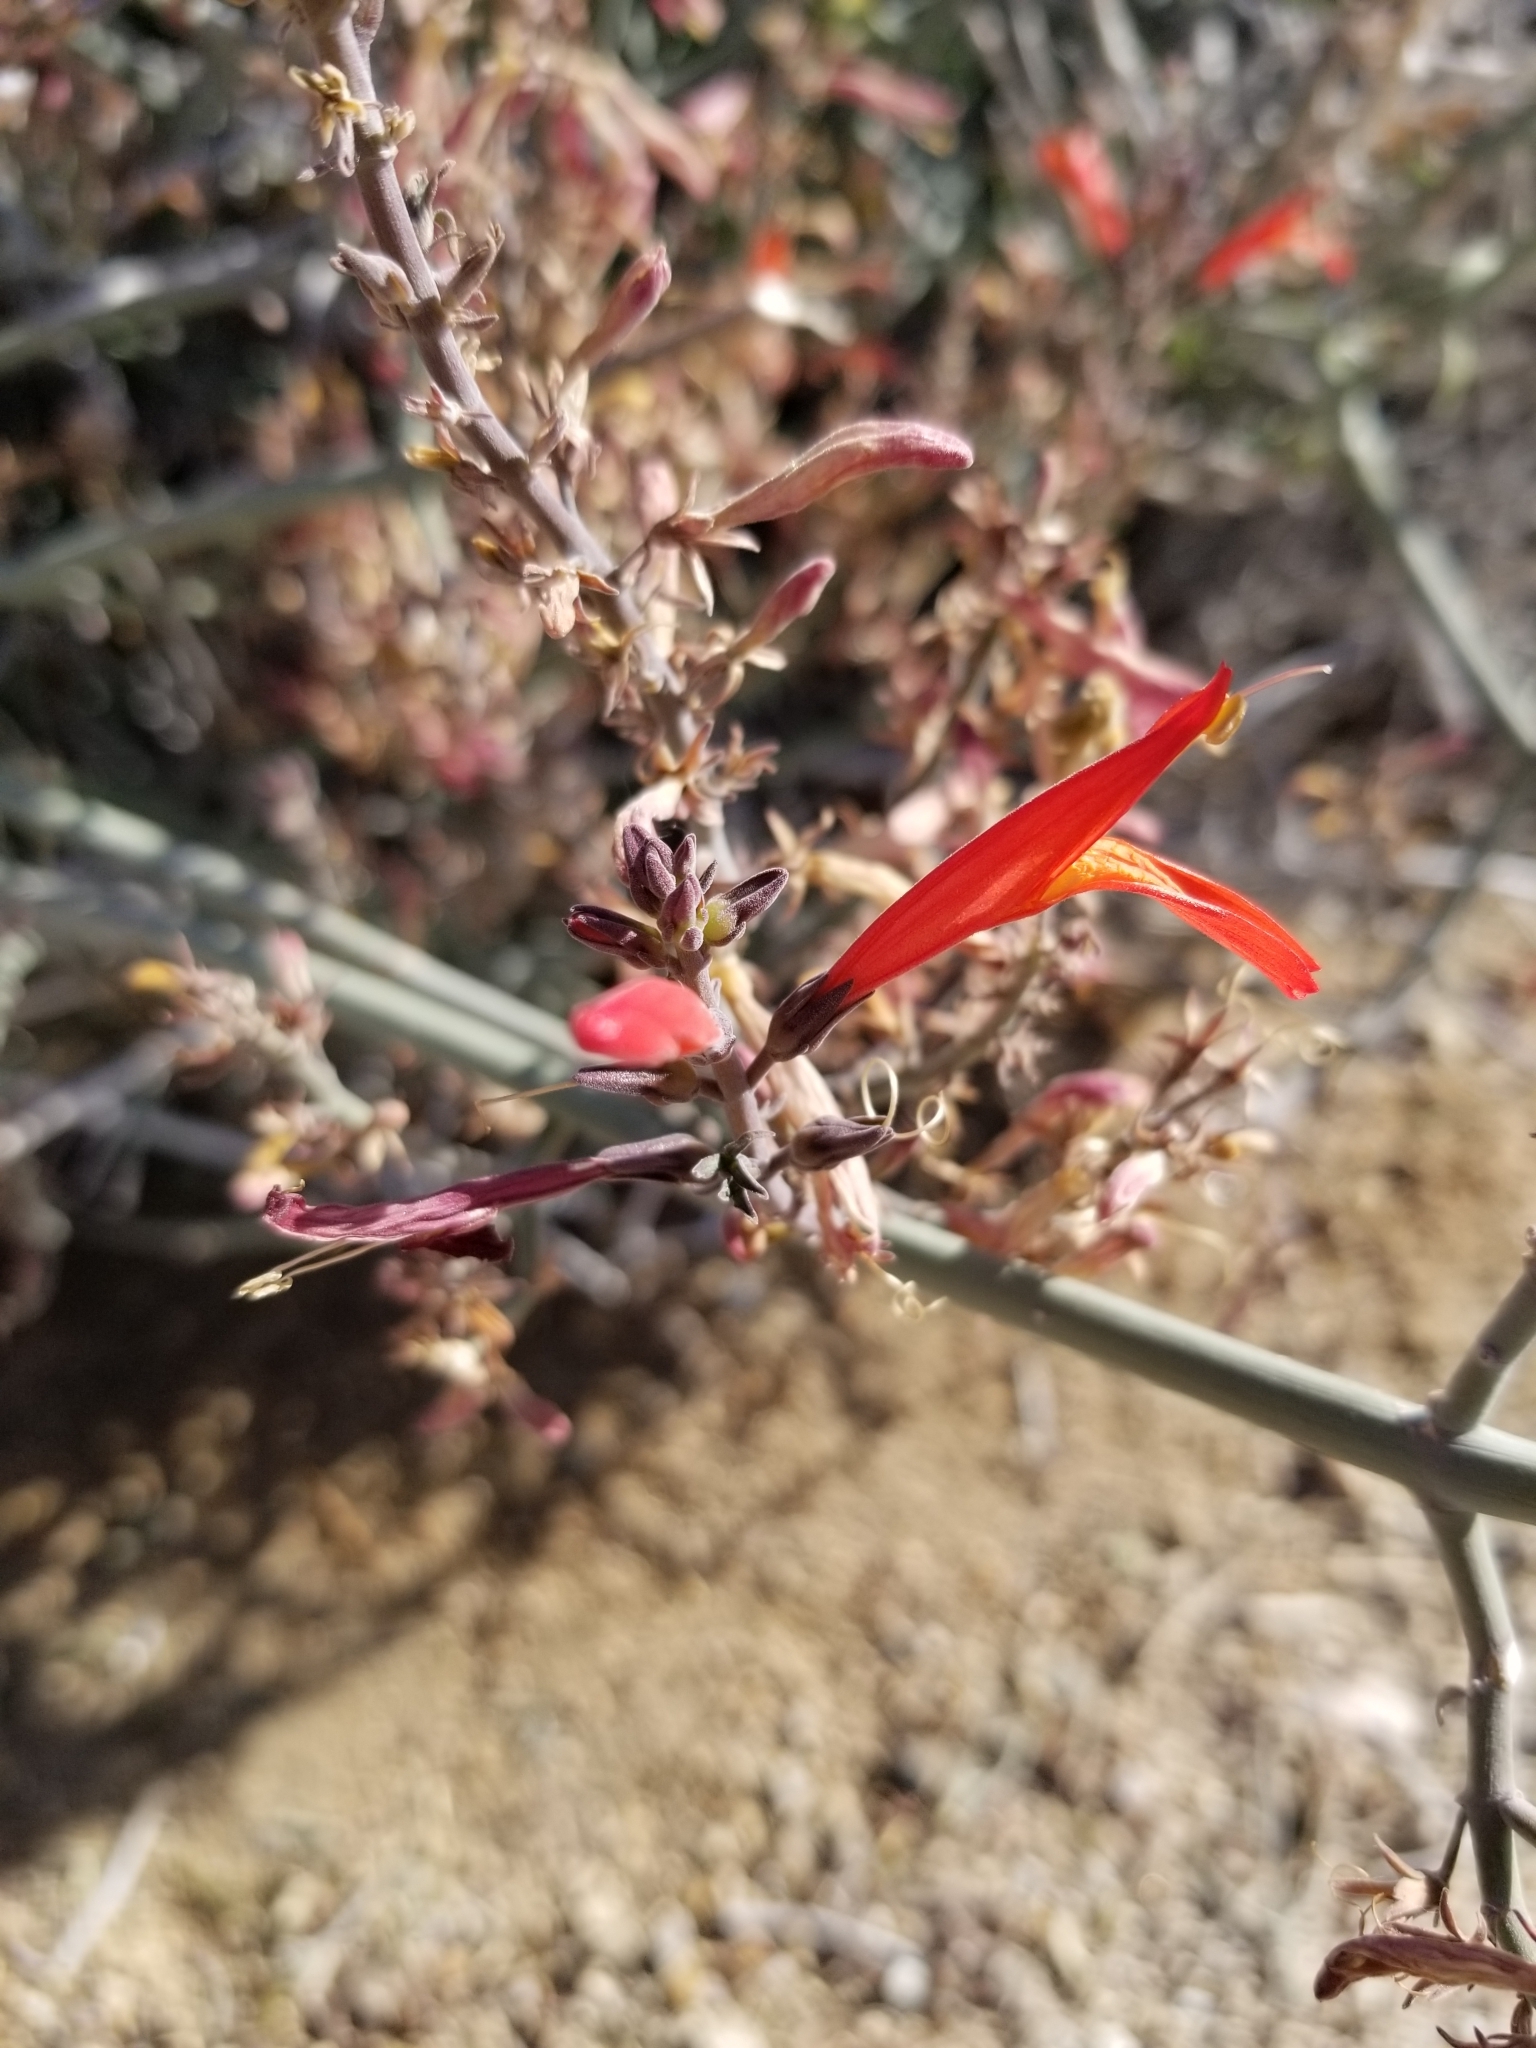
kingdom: Plantae
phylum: Tracheophyta
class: Magnoliopsida
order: Lamiales
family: Acanthaceae
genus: Justicia
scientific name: Justicia californica
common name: Chuparosa-honeysuckle
